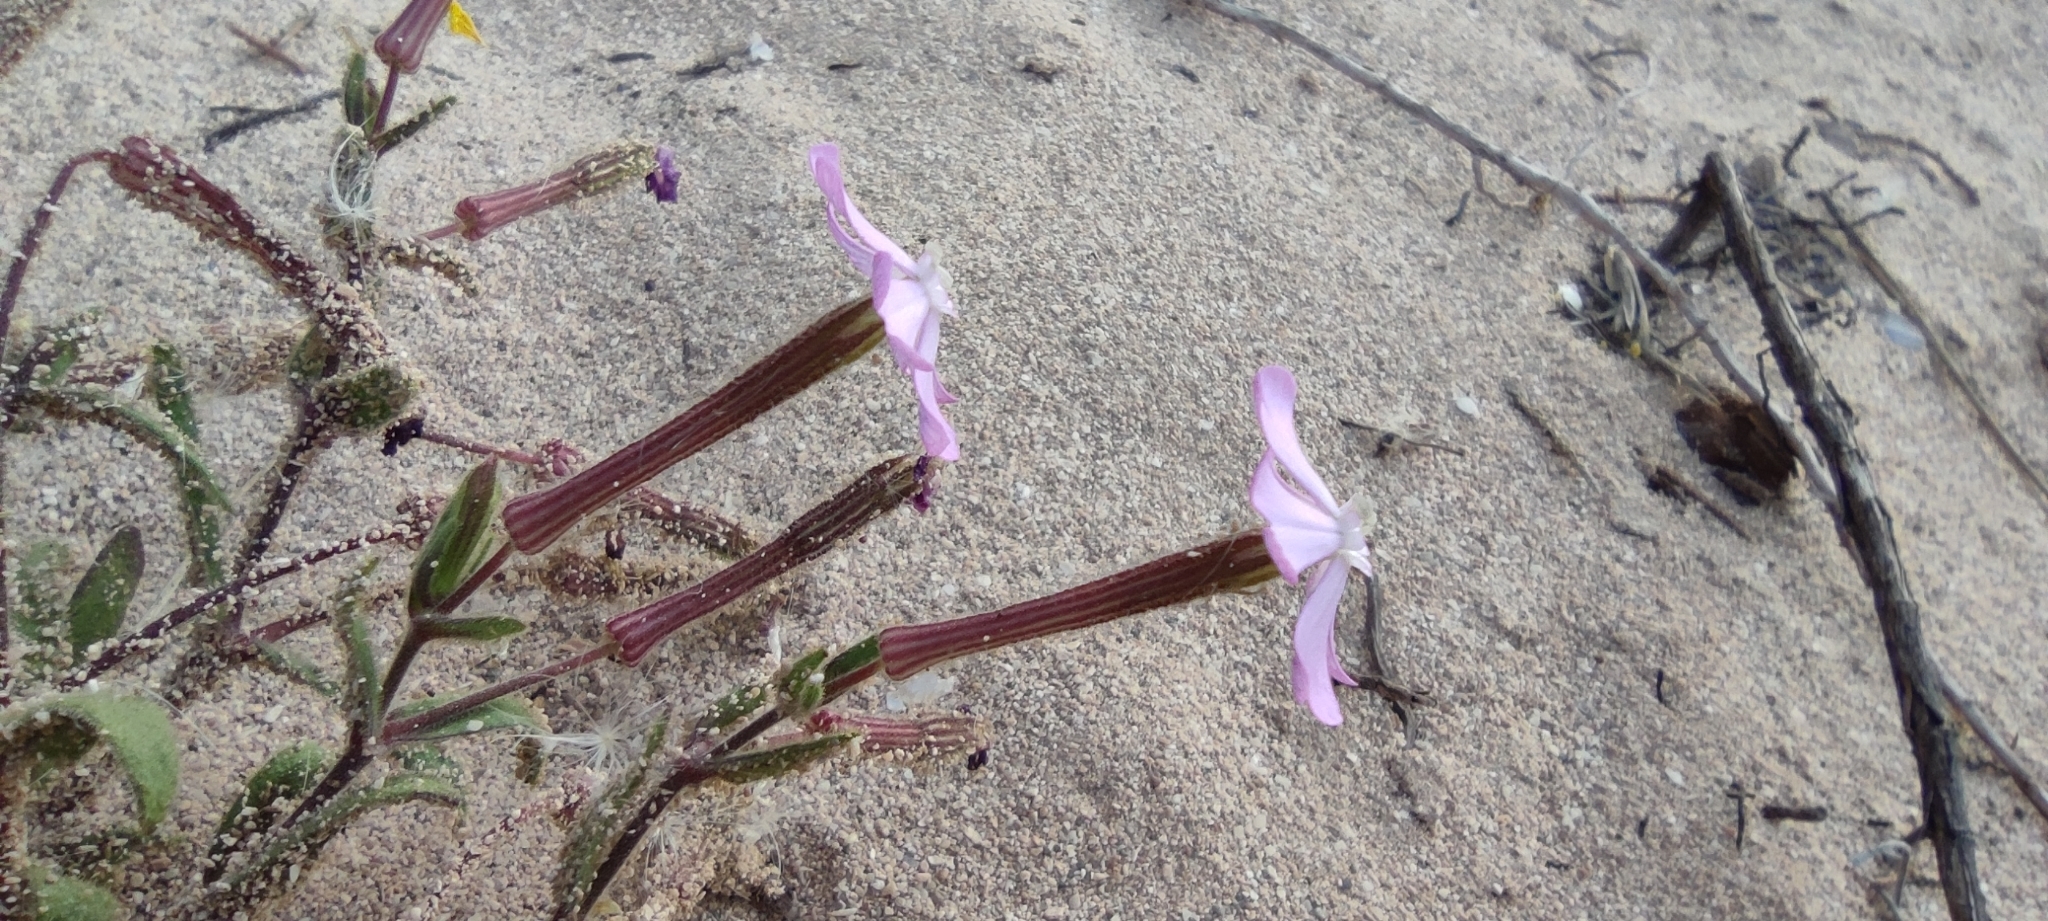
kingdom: Plantae
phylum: Tracheophyta
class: Magnoliopsida
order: Caryophyllales
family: Caryophyllaceae
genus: Silene
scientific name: Silene cambessedesii
